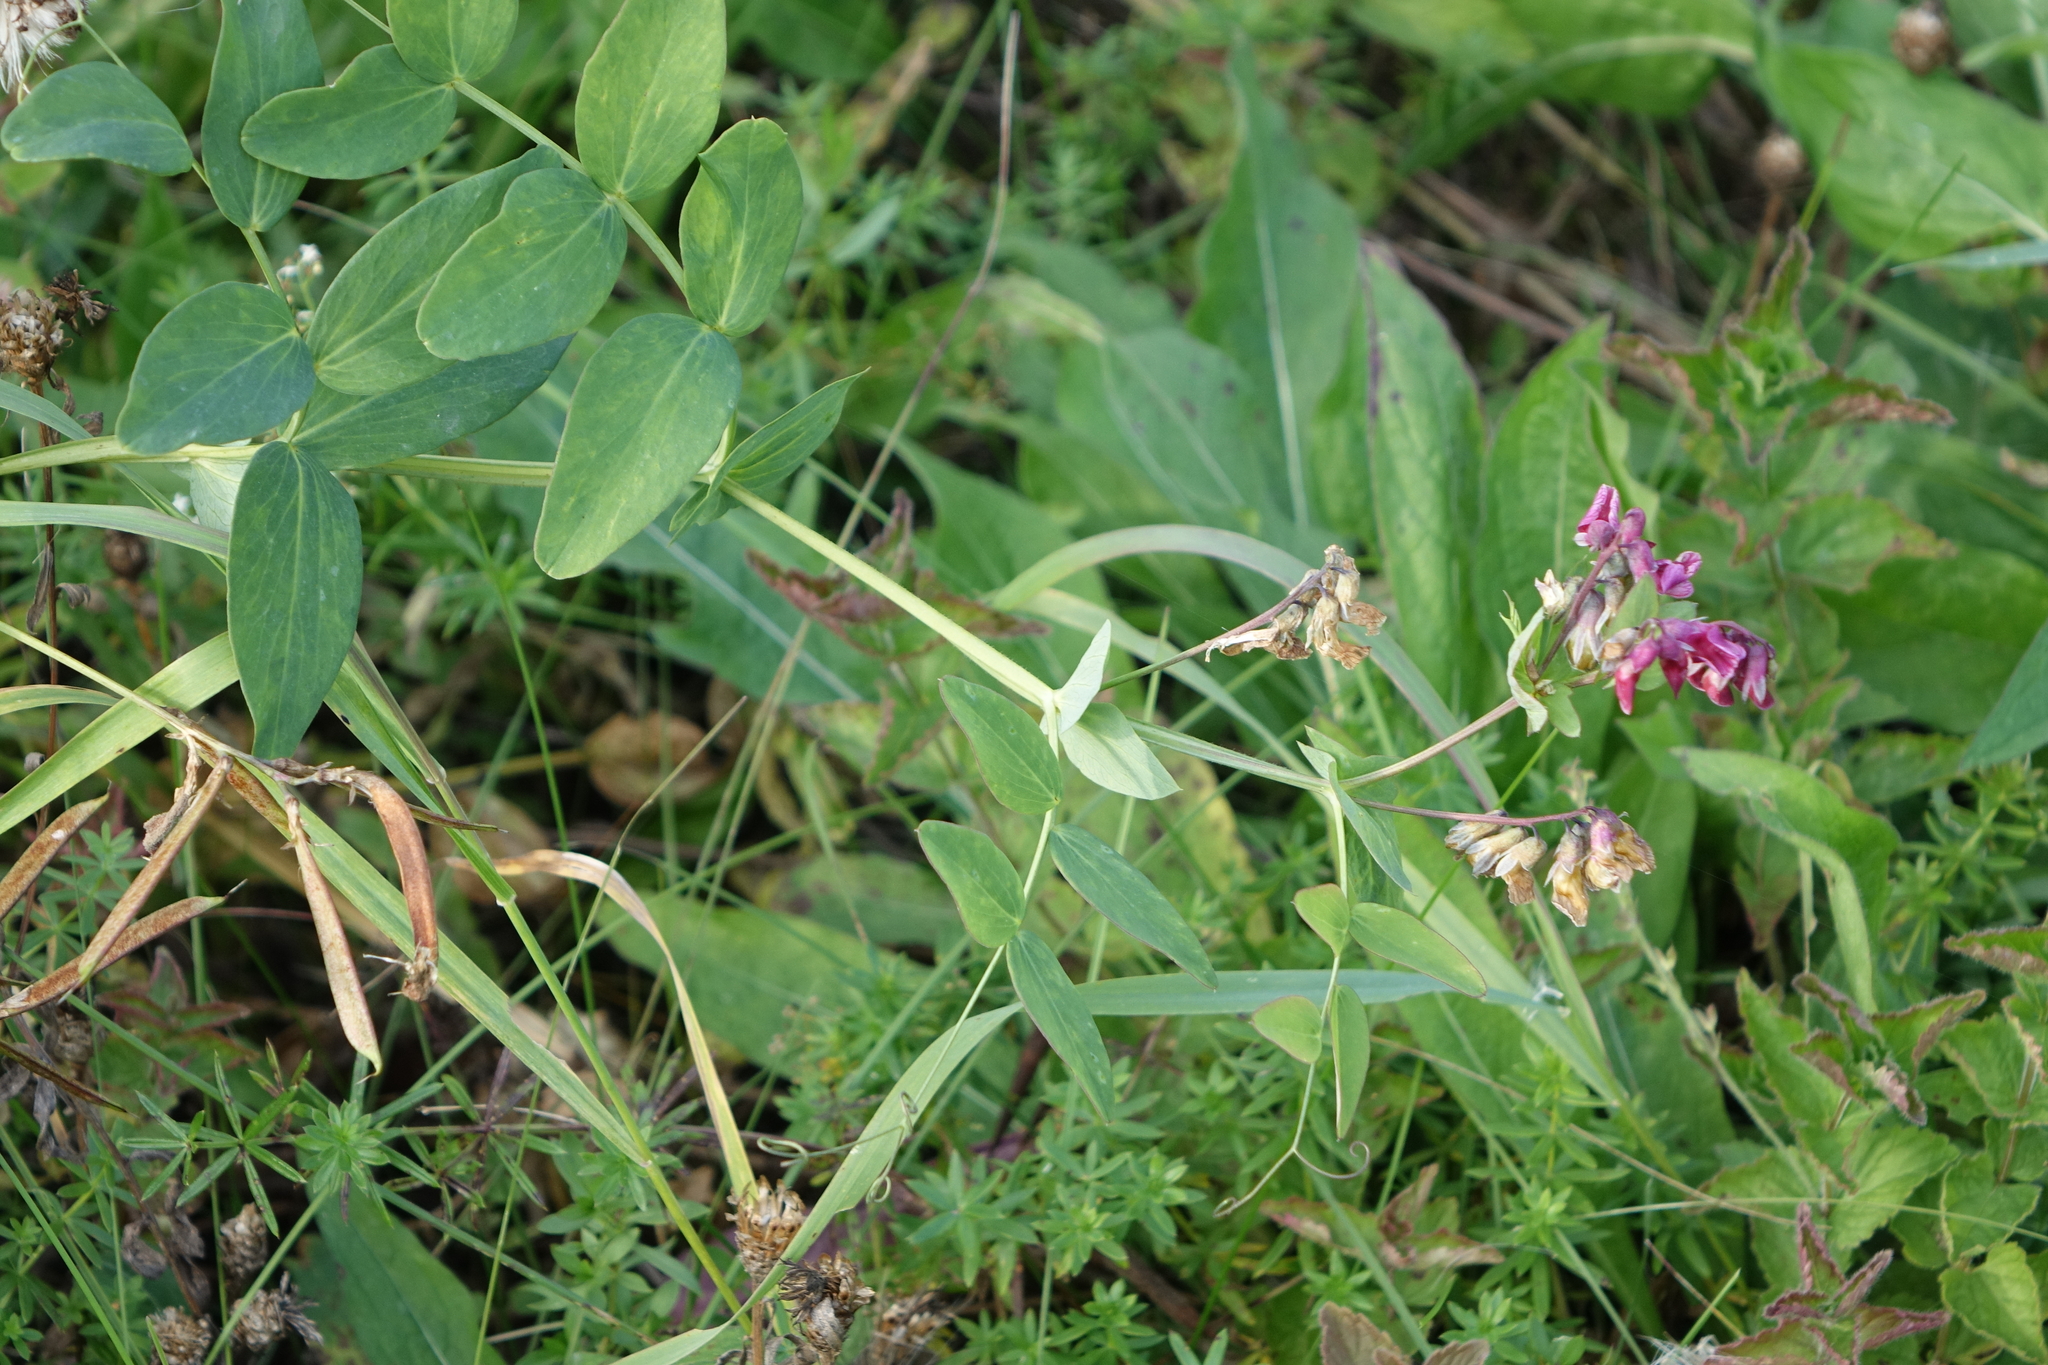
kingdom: Plantae
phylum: Tracheophyta
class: Magnoliopsida
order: Fabales
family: Fabaceae
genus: Lathyrus
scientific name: Lathyrus pisiformis
